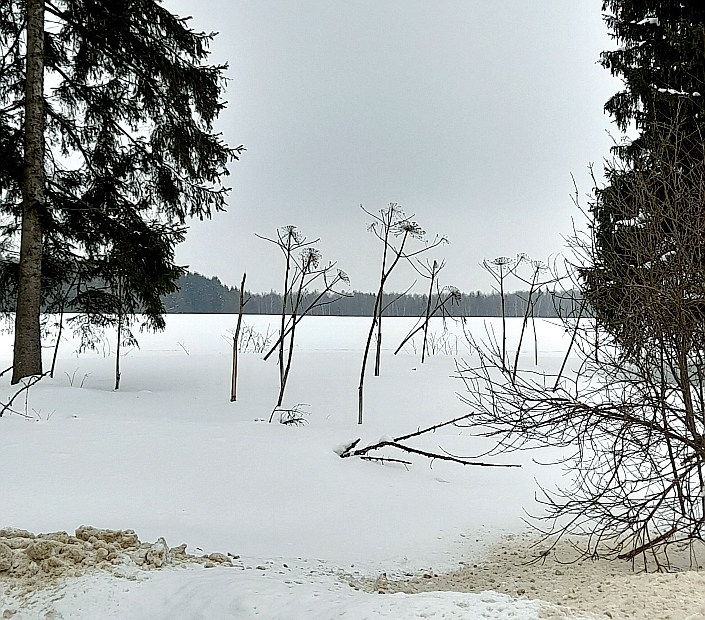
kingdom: Plantae
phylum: Tracheophyta
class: Magnoliopsida
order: Apiales
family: Apiaceae
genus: Heracleum
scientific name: Heracleum sosnowskyi
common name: Sosnowsky's hogweed
